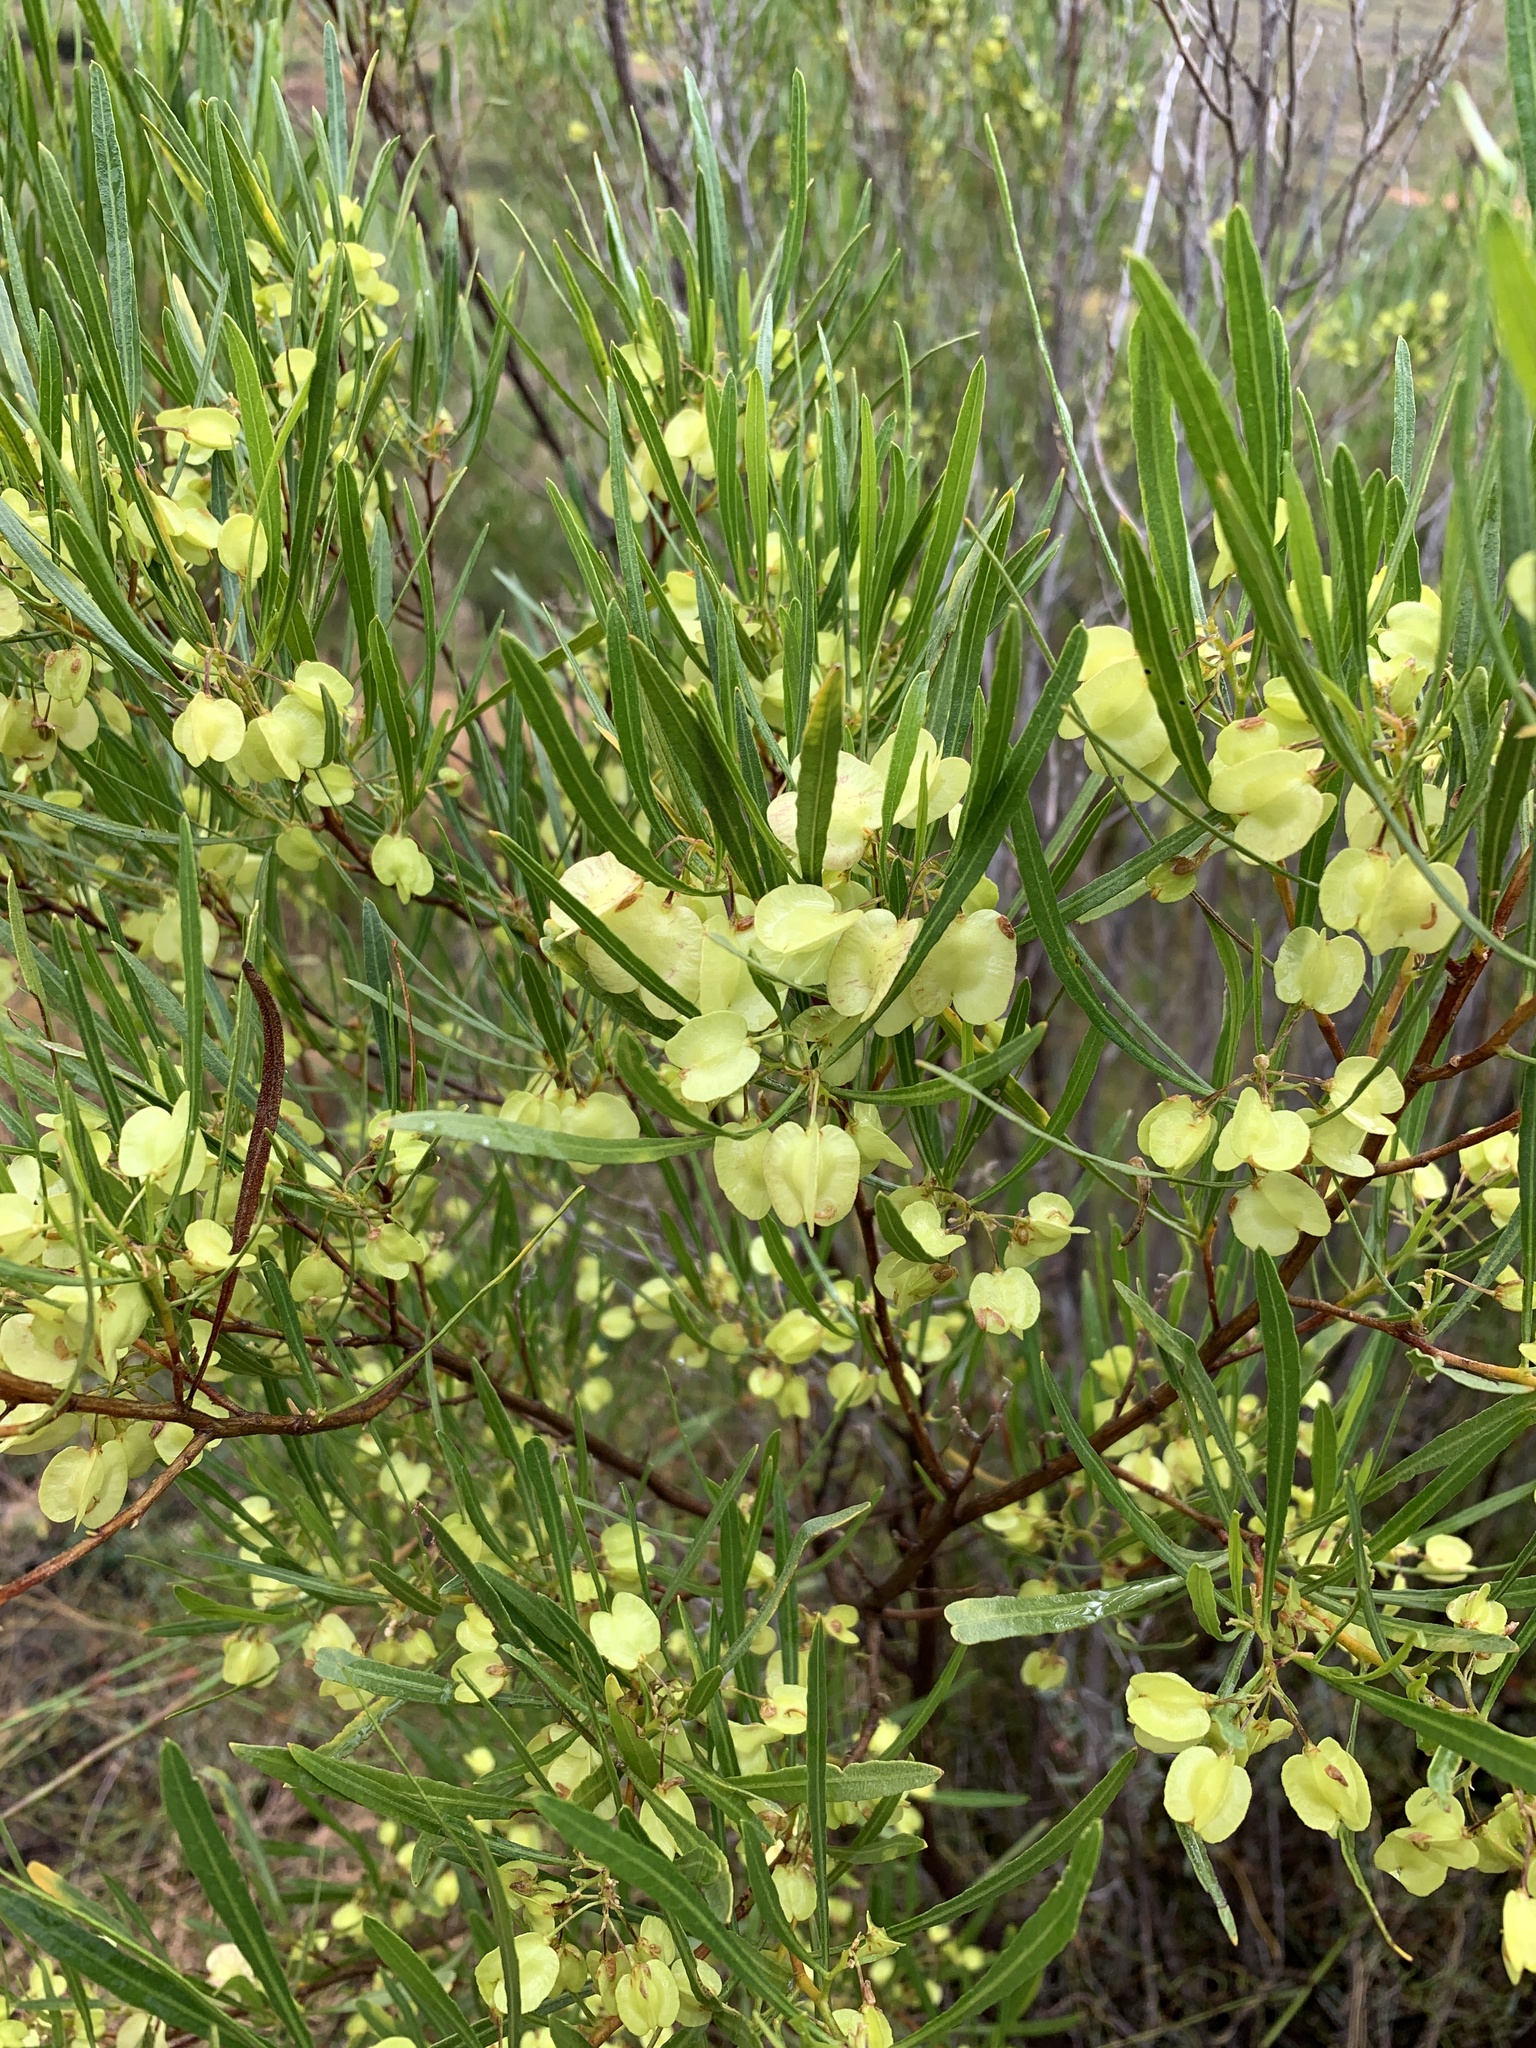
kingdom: Plantae
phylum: Tracheophyta
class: Magnoliopsida
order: Sapindales
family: Sapindaceae
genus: Dodonaea
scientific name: Dodonaea viscosa
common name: Hopbush
